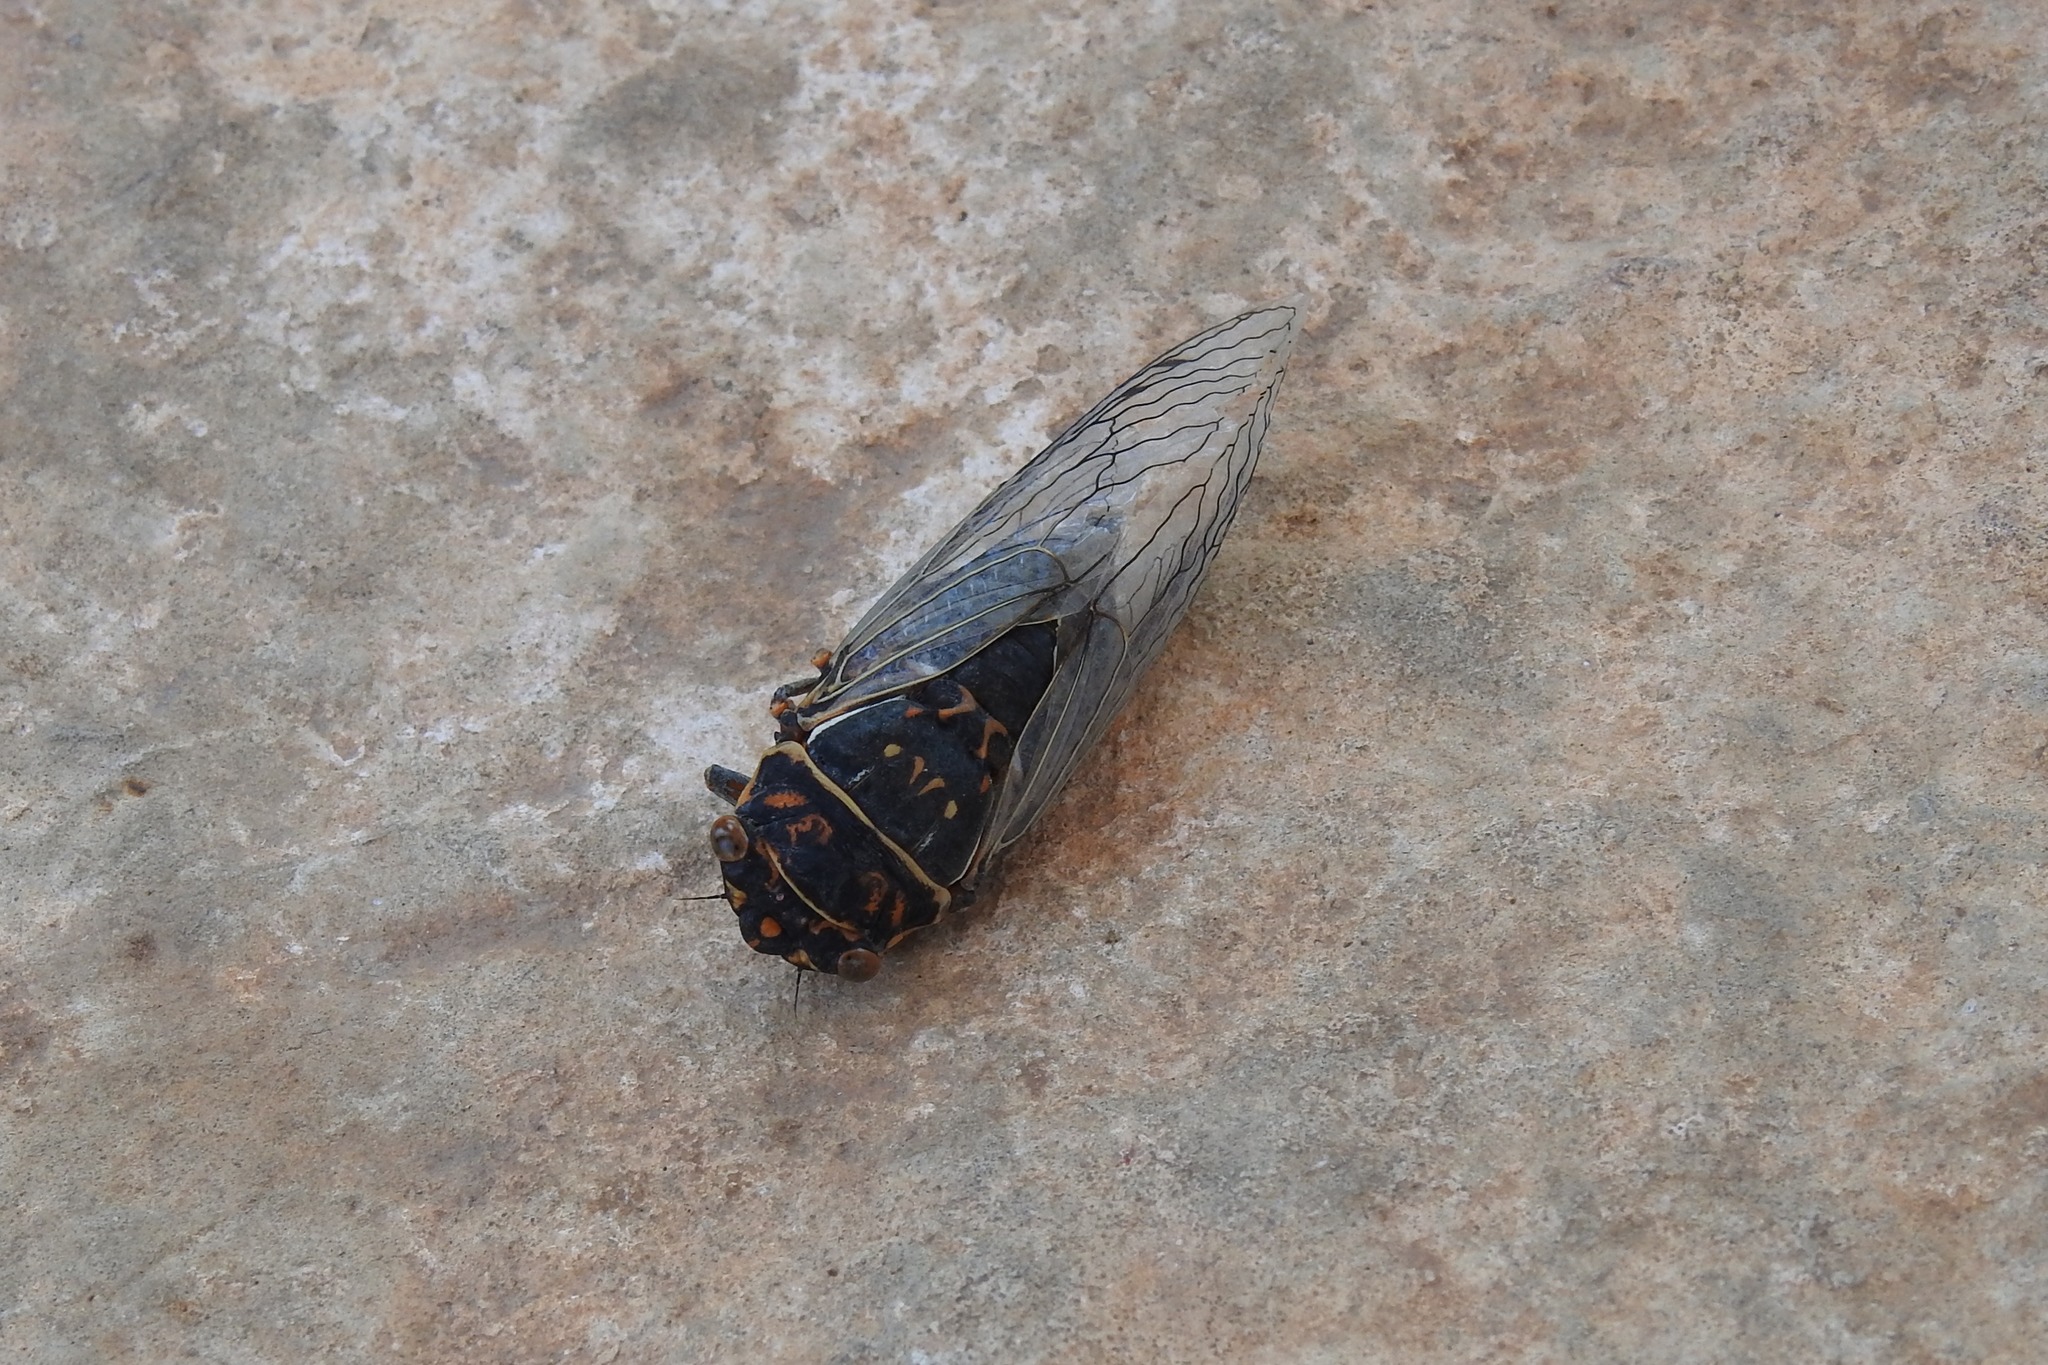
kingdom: Animalia
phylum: Arthropoda
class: Insecta
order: Hemiptera
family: Cicadidae
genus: Hadoa
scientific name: Hadoa duryi
